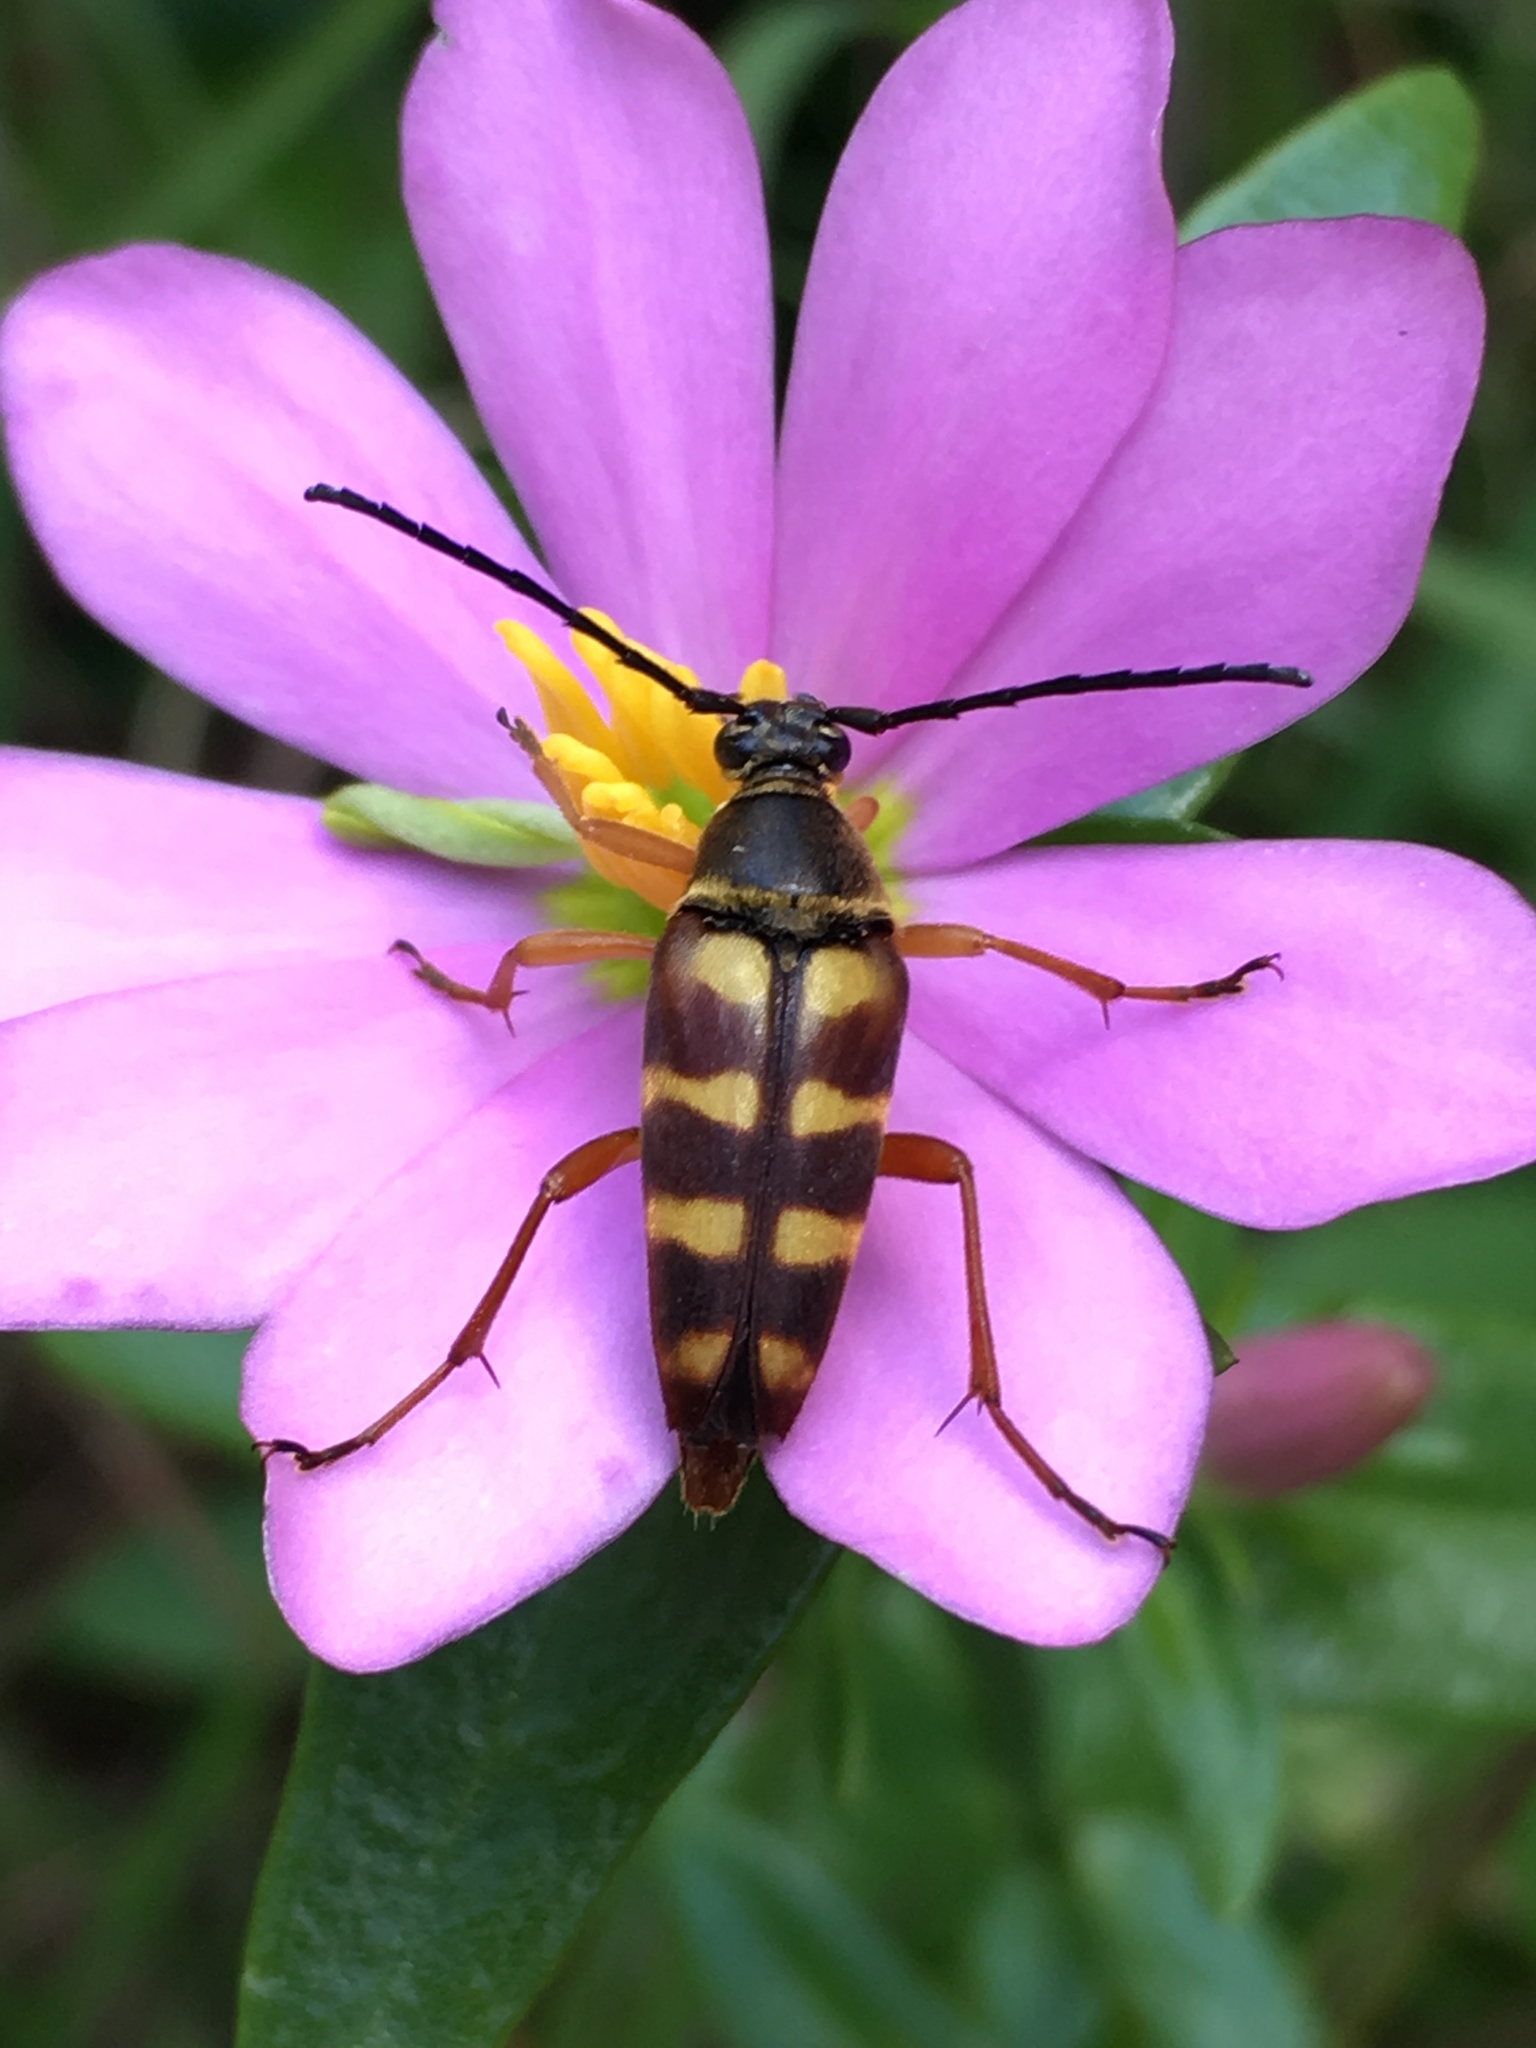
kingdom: Plantae
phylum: Tracheophyta
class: Magnoliopsida
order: Gentianales
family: Gentianaceae
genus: Sabatia
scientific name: Sabatia capitata
